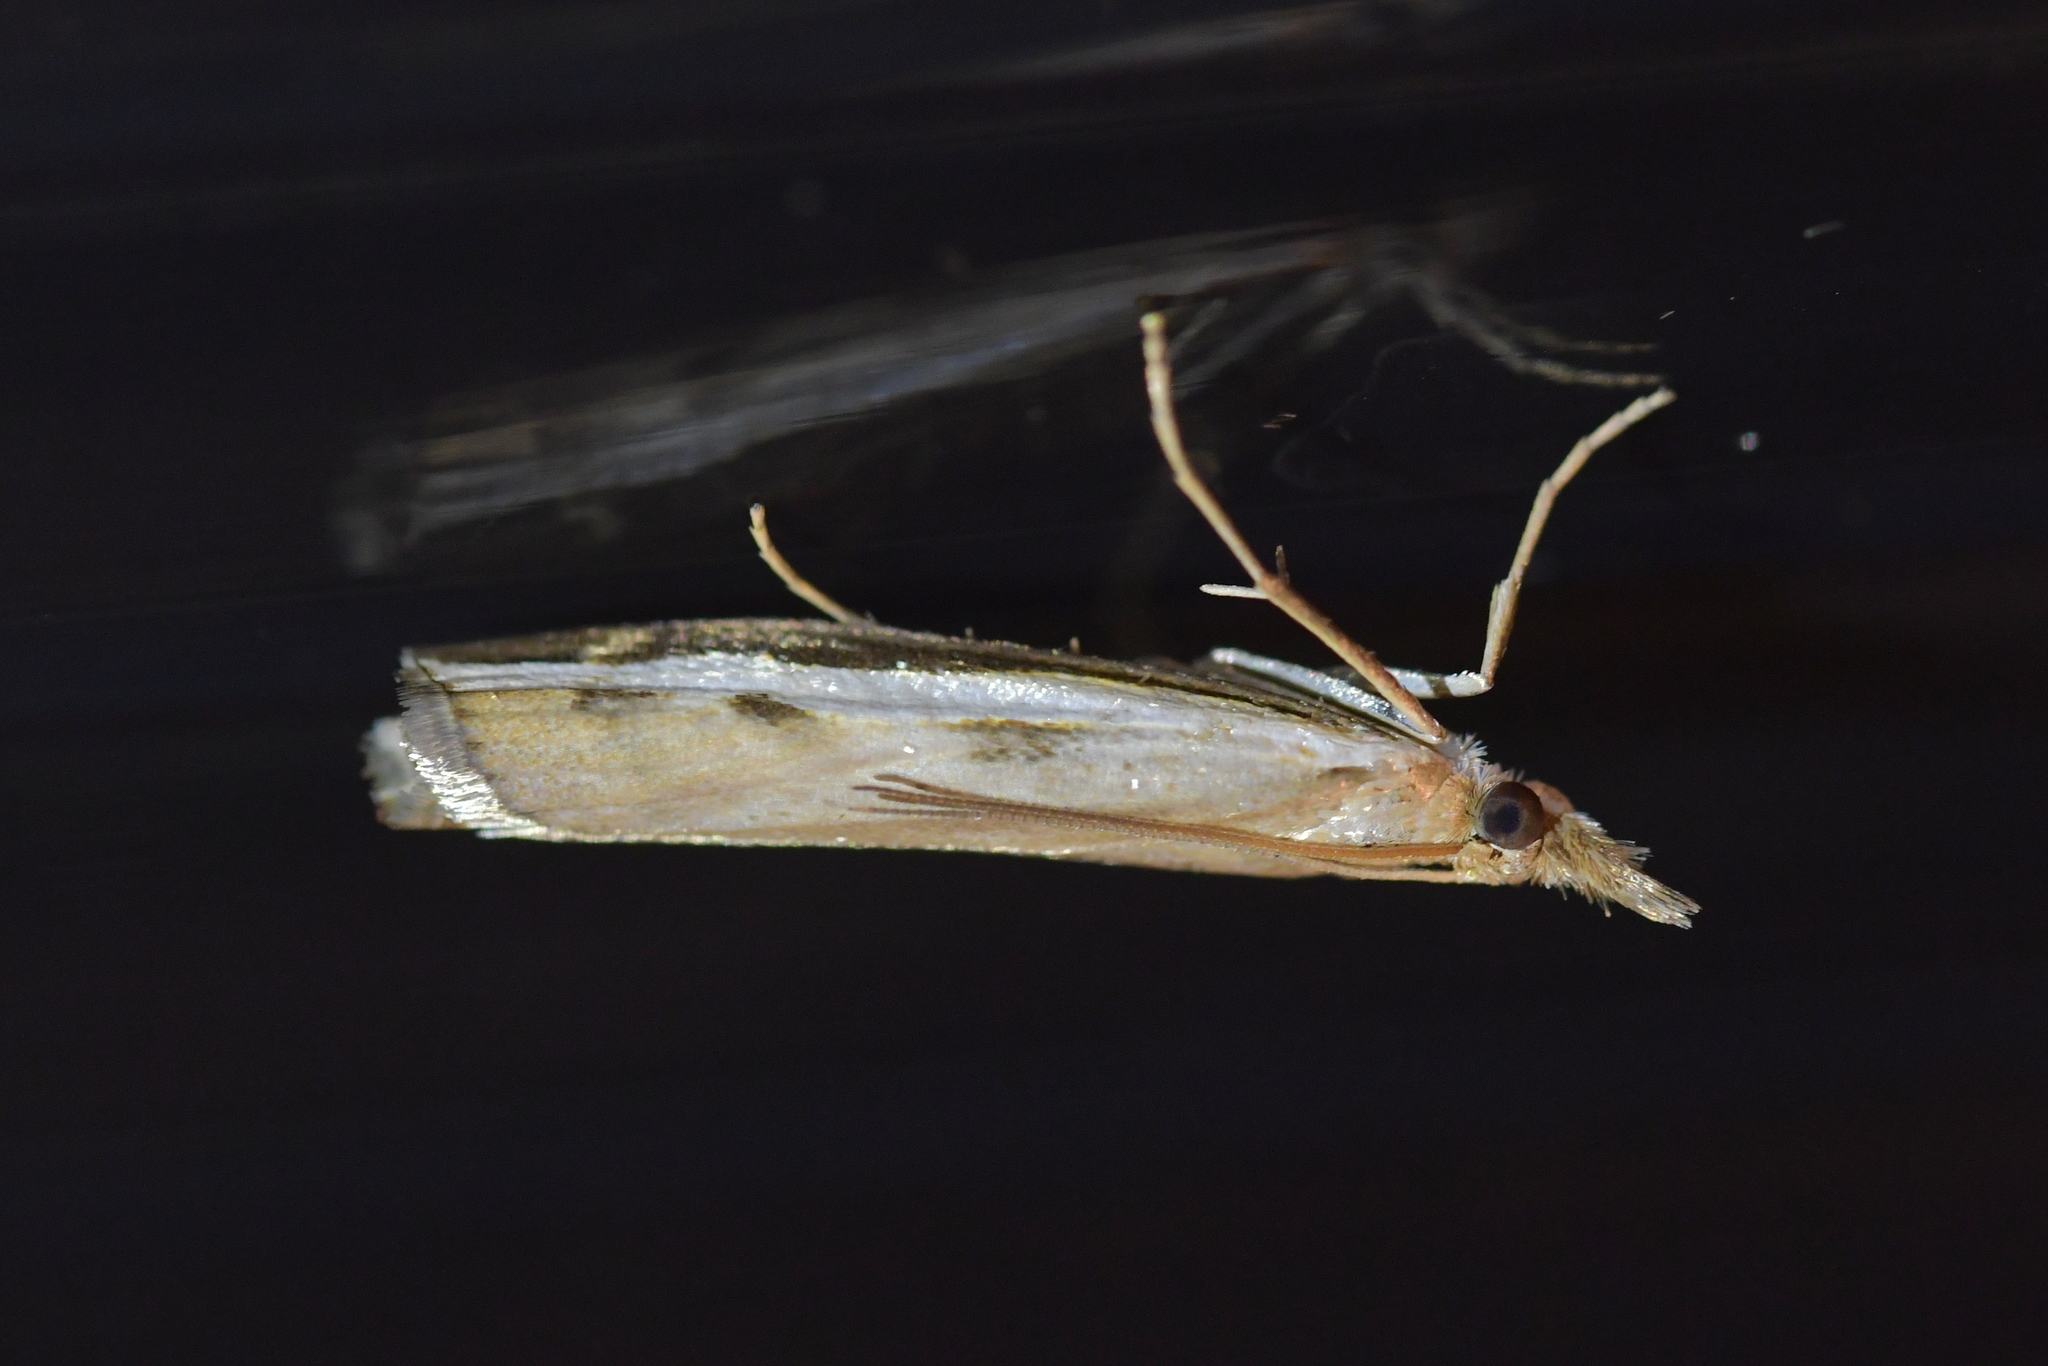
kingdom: Animalia
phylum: Arthropoda
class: Insecta
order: Lepidoptera
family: Crambidae
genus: Orocrambus
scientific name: Orocrambus flexuosellus
